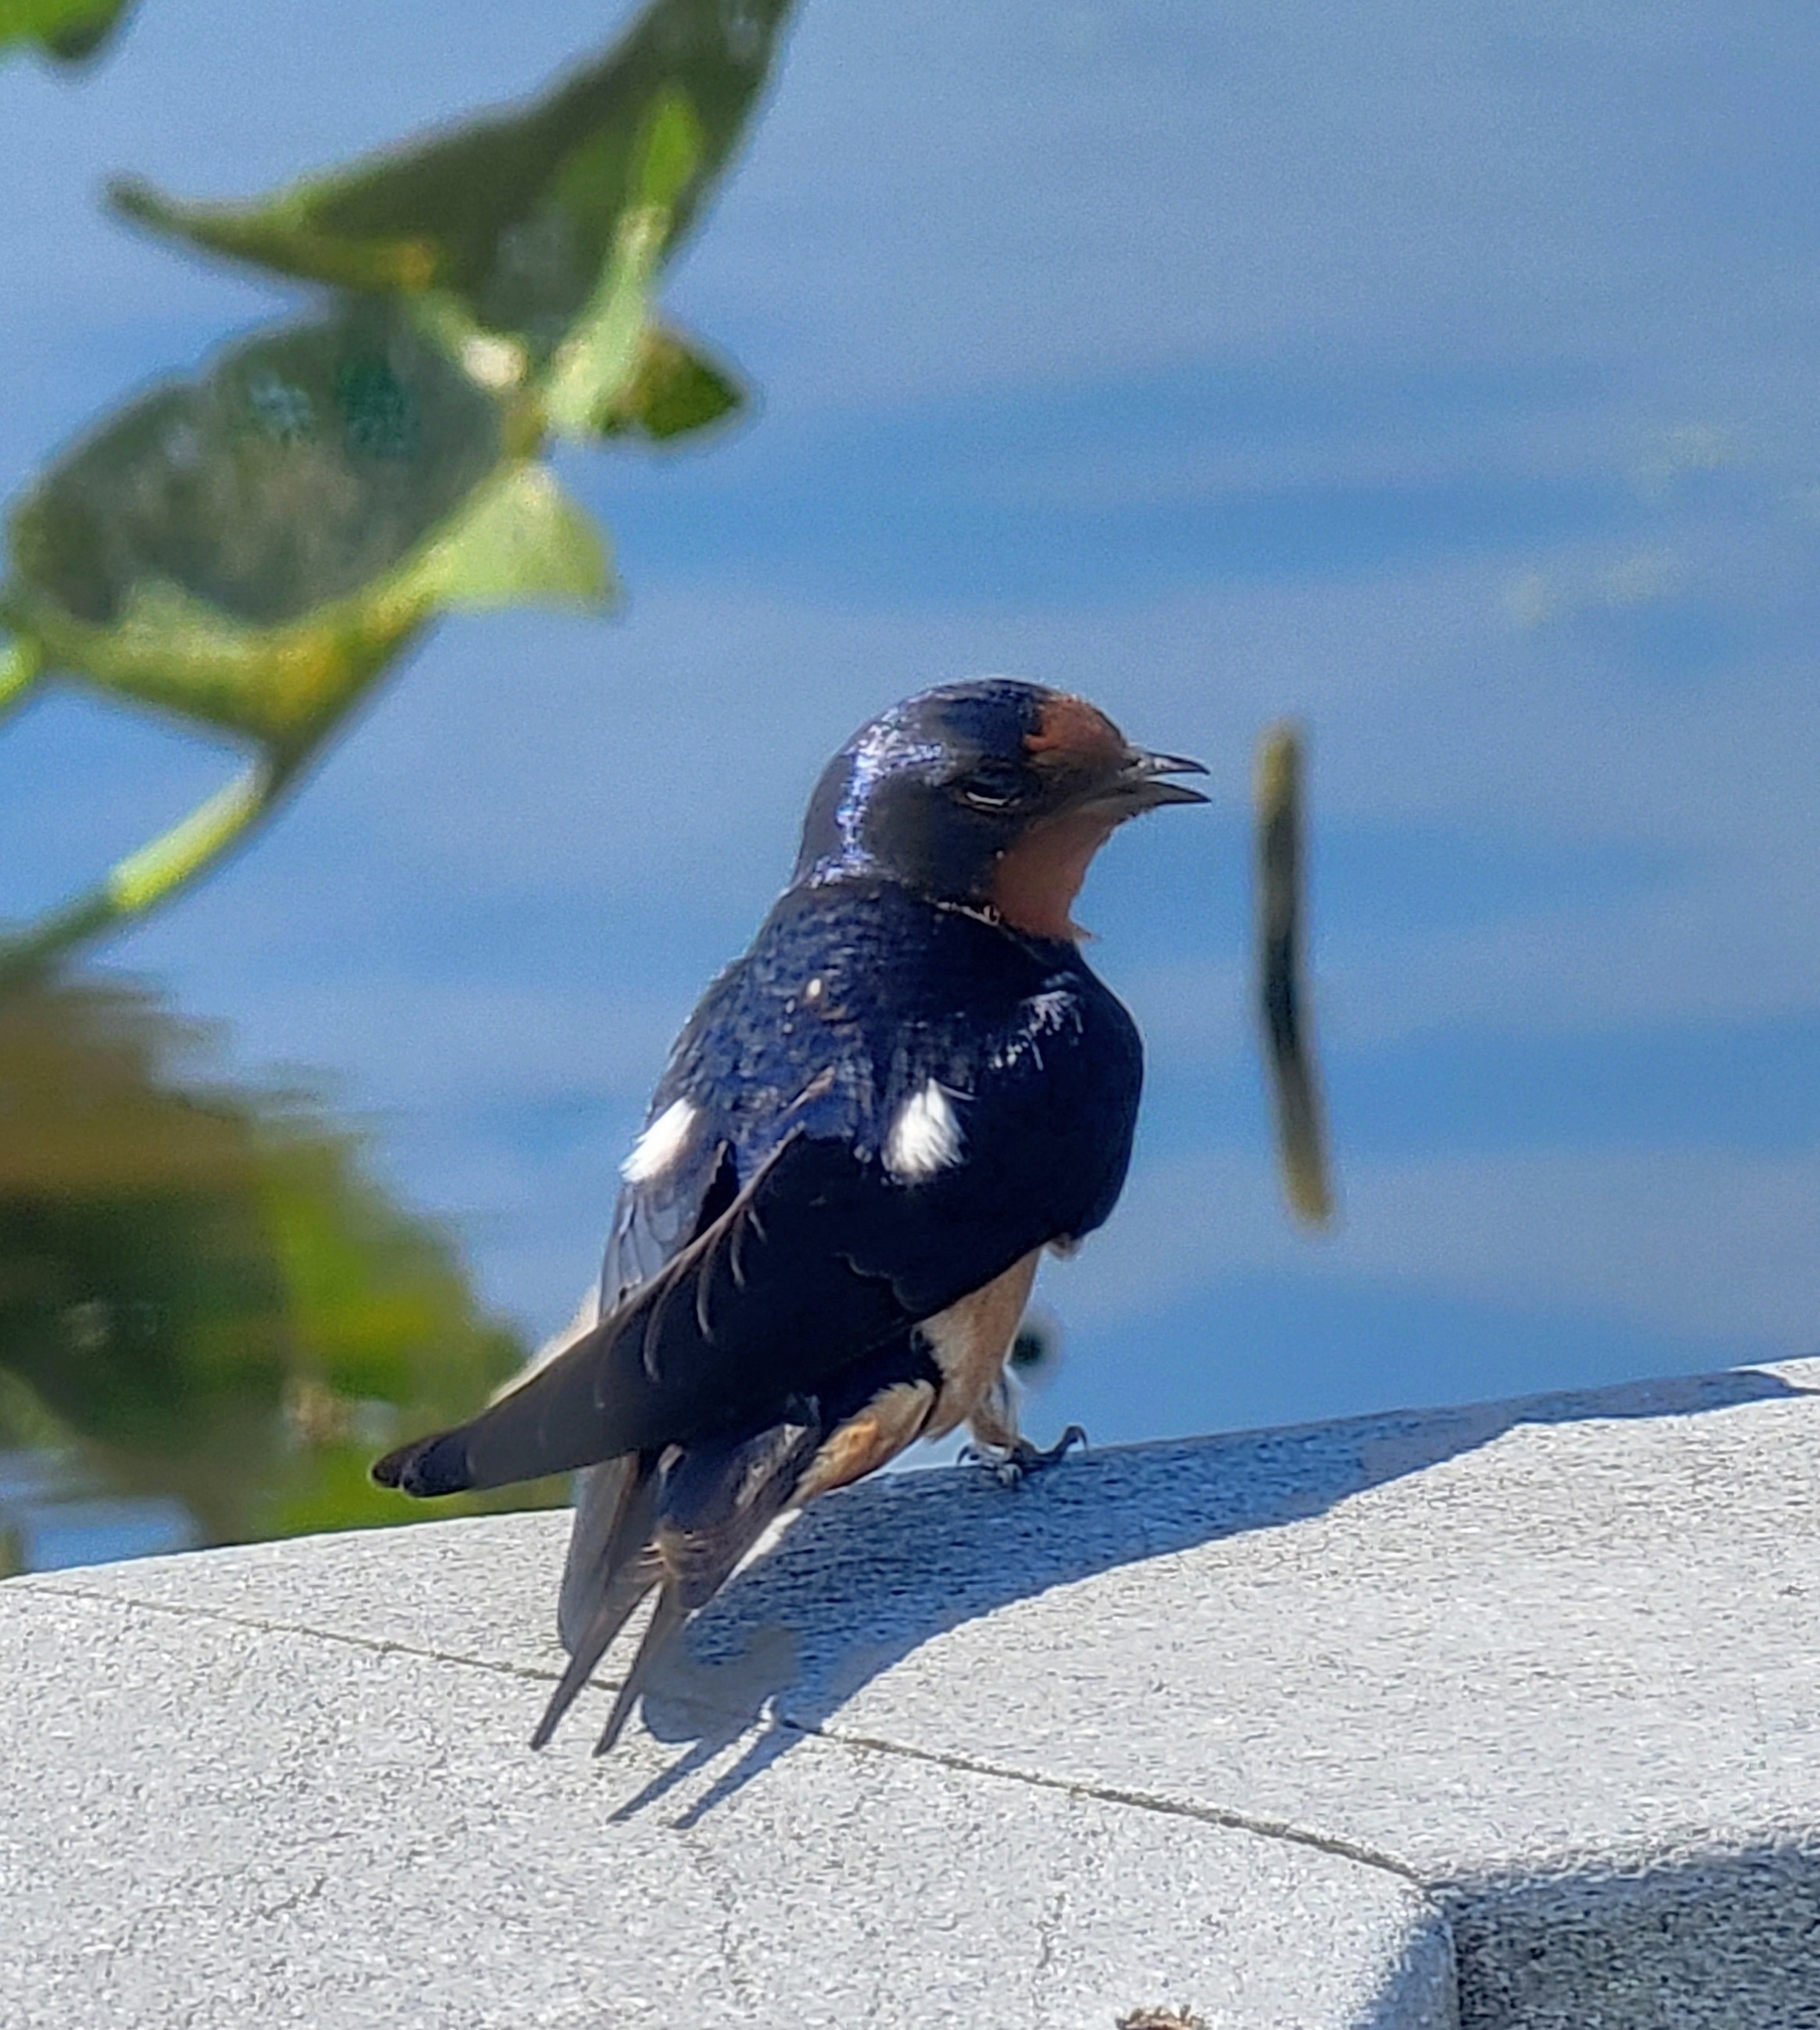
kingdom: Animalia
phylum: Chordata
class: Aves
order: Passeriformes
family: Hirundinidae
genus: Hirundo
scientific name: Hirundo rustica
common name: Barn swallow
